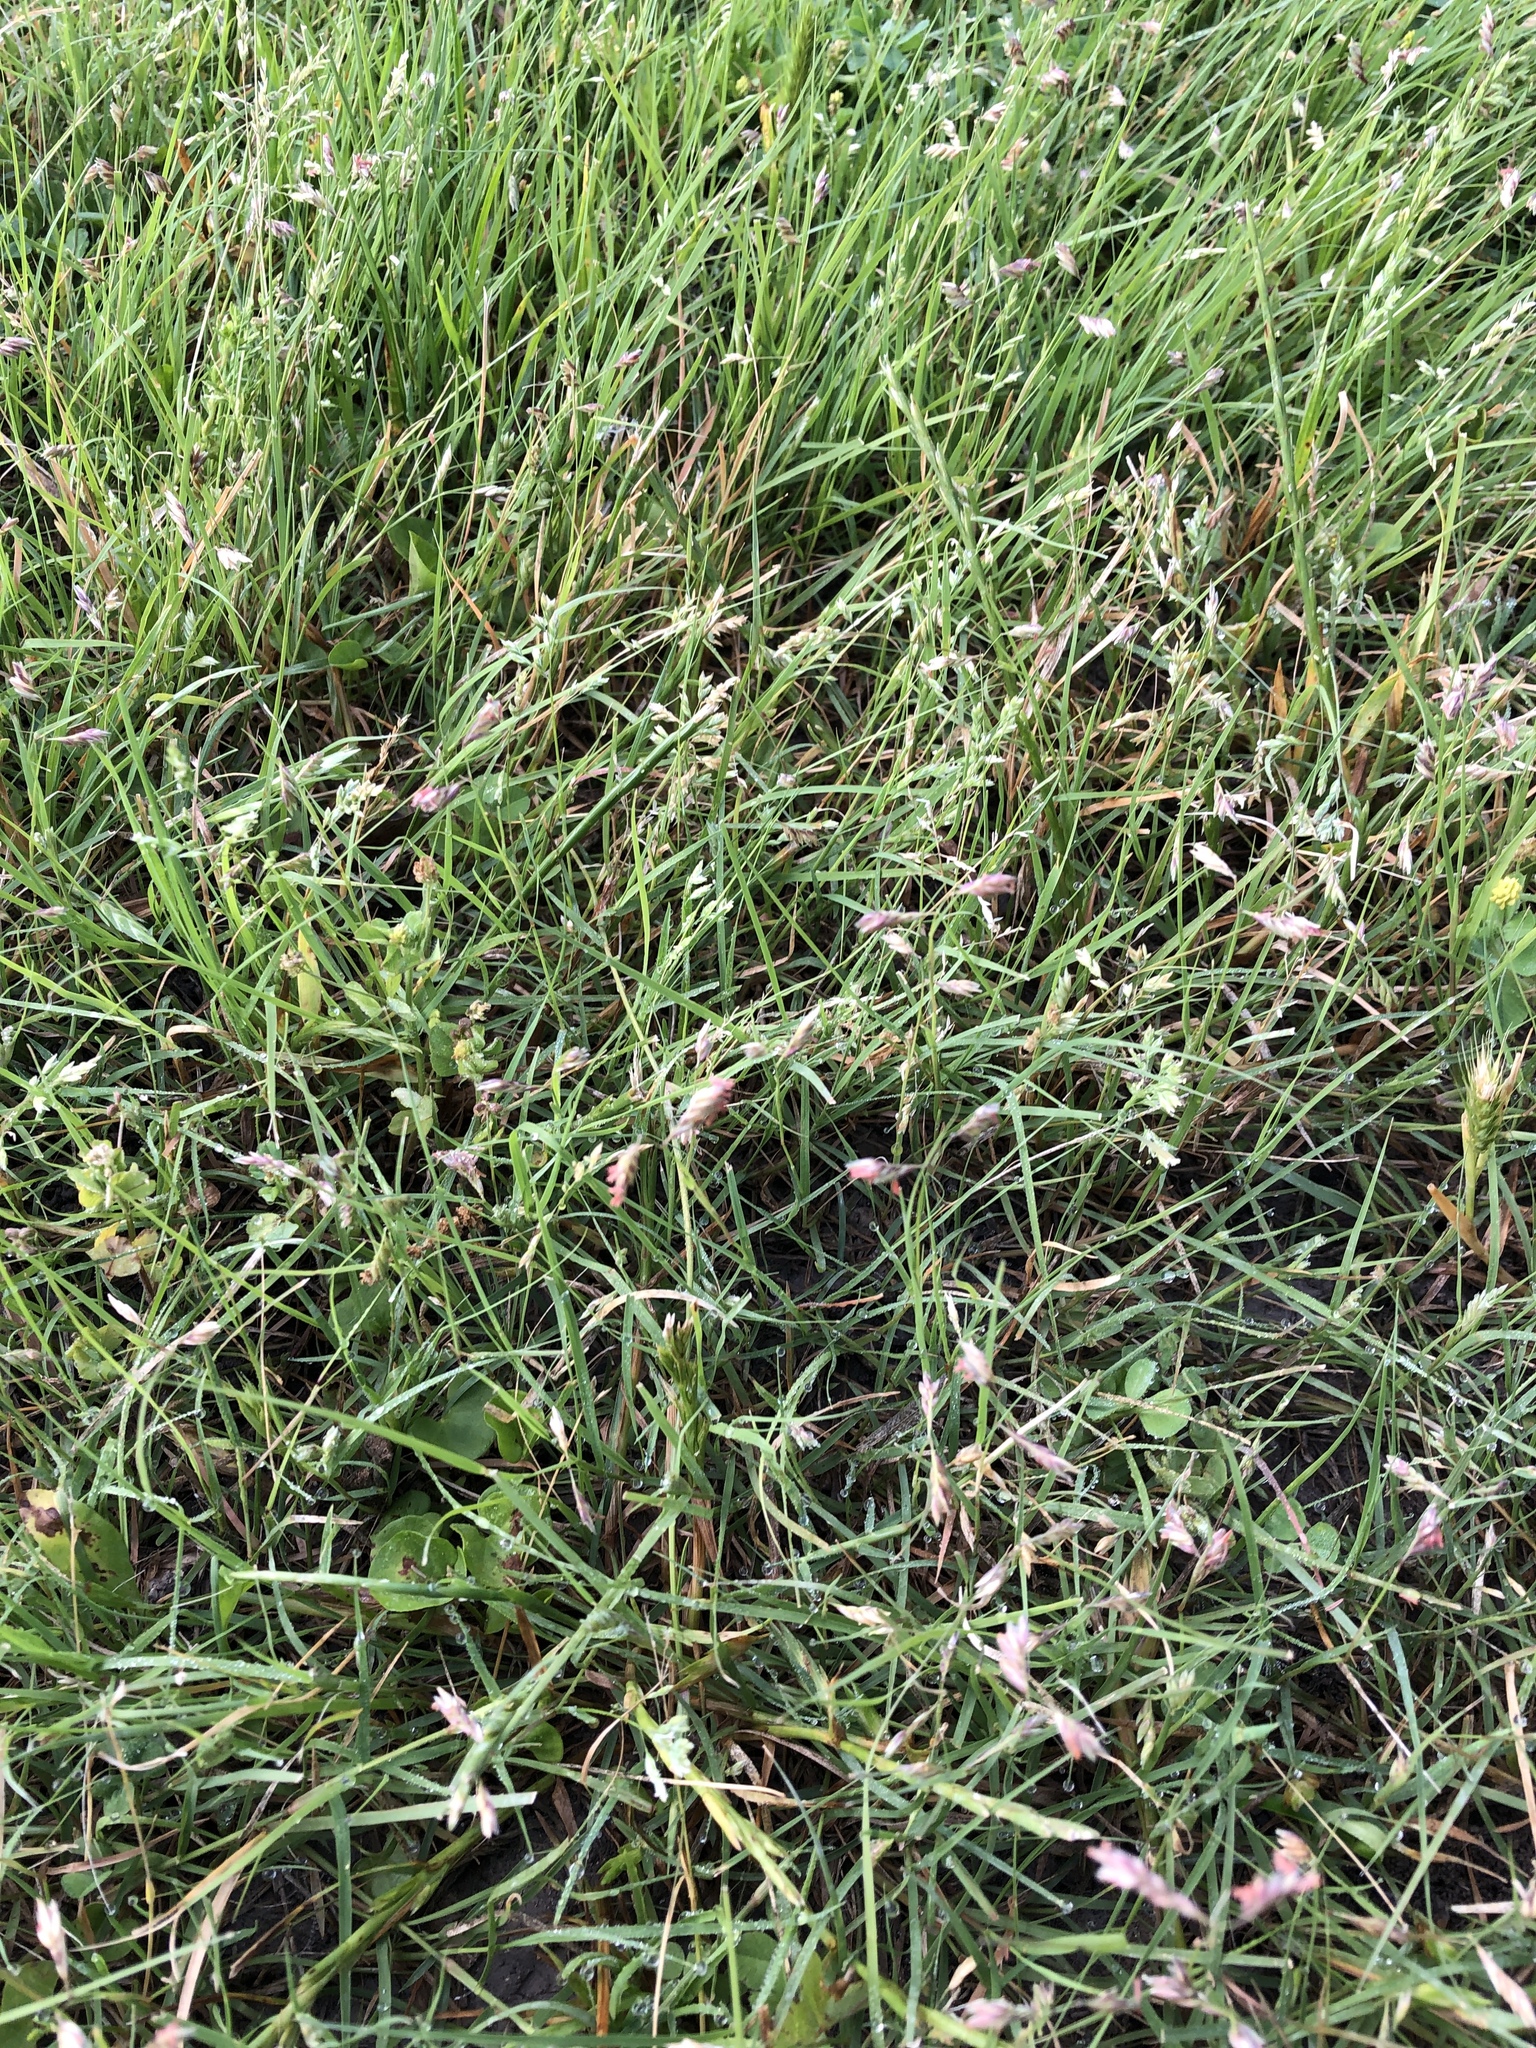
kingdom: Plantae
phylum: Tracheophyta
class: Liliopsida
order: Poales
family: Poaceae
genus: Bouteloua
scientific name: Bouteloua dactyloides
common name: Buffalo grass
